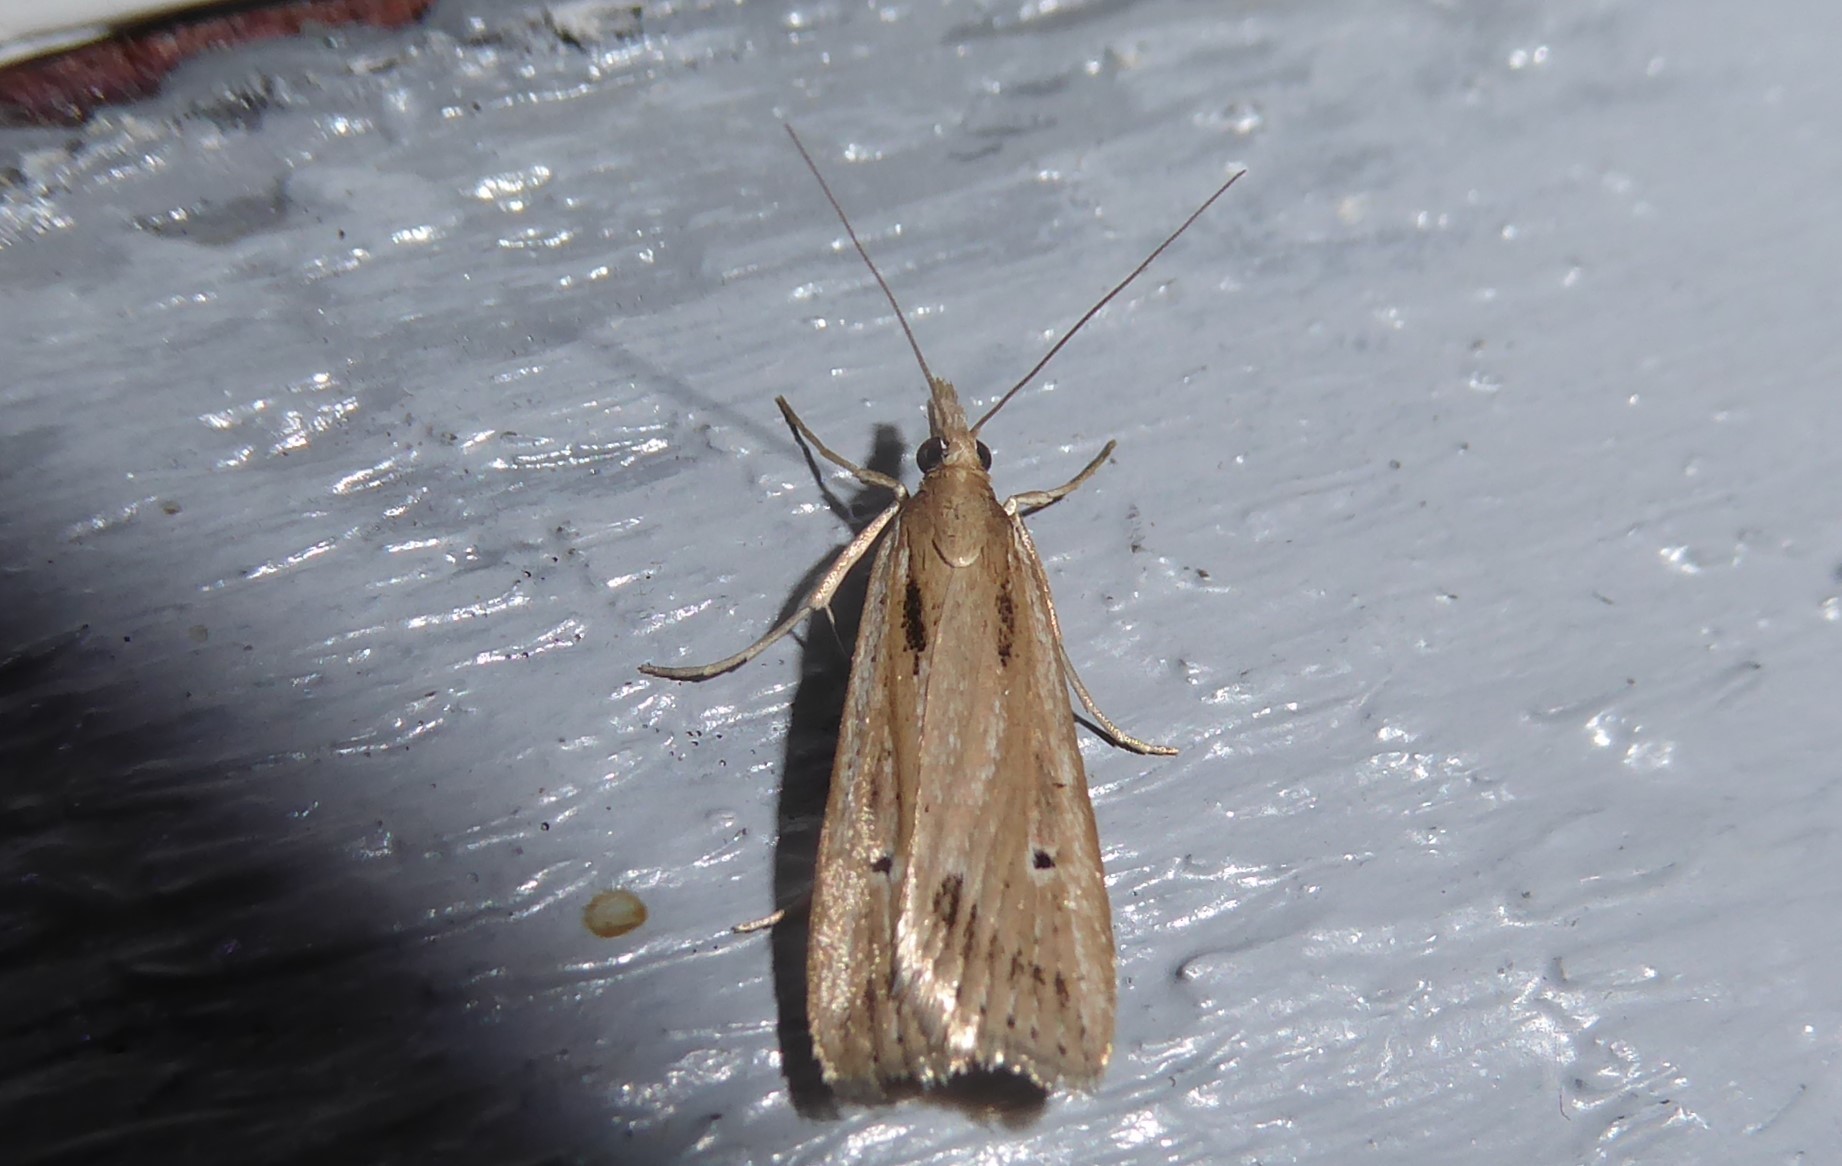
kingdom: Animalia
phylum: Arthropoda
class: Insecta
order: Lepidoptera
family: Crambidae
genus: Eudonia
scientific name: Eudonia sabulosella
